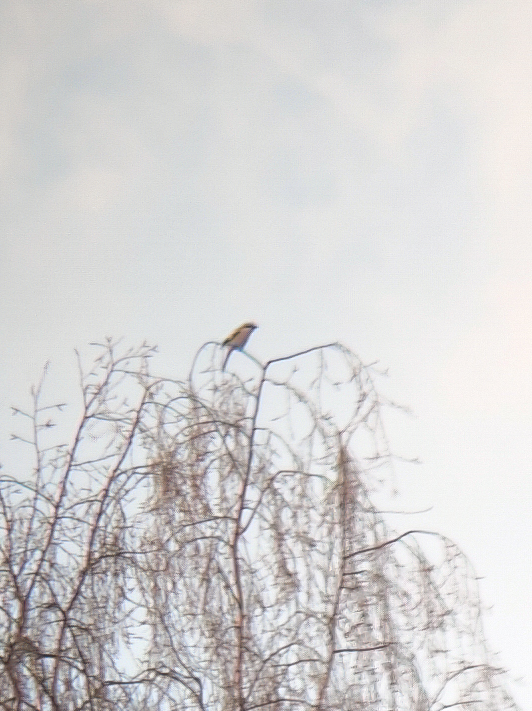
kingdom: Animalia
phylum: Chordata
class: Aves
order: Passeriformes
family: Laniidae
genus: Lanius
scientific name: Lanius excubitor
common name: Great grey shrike
